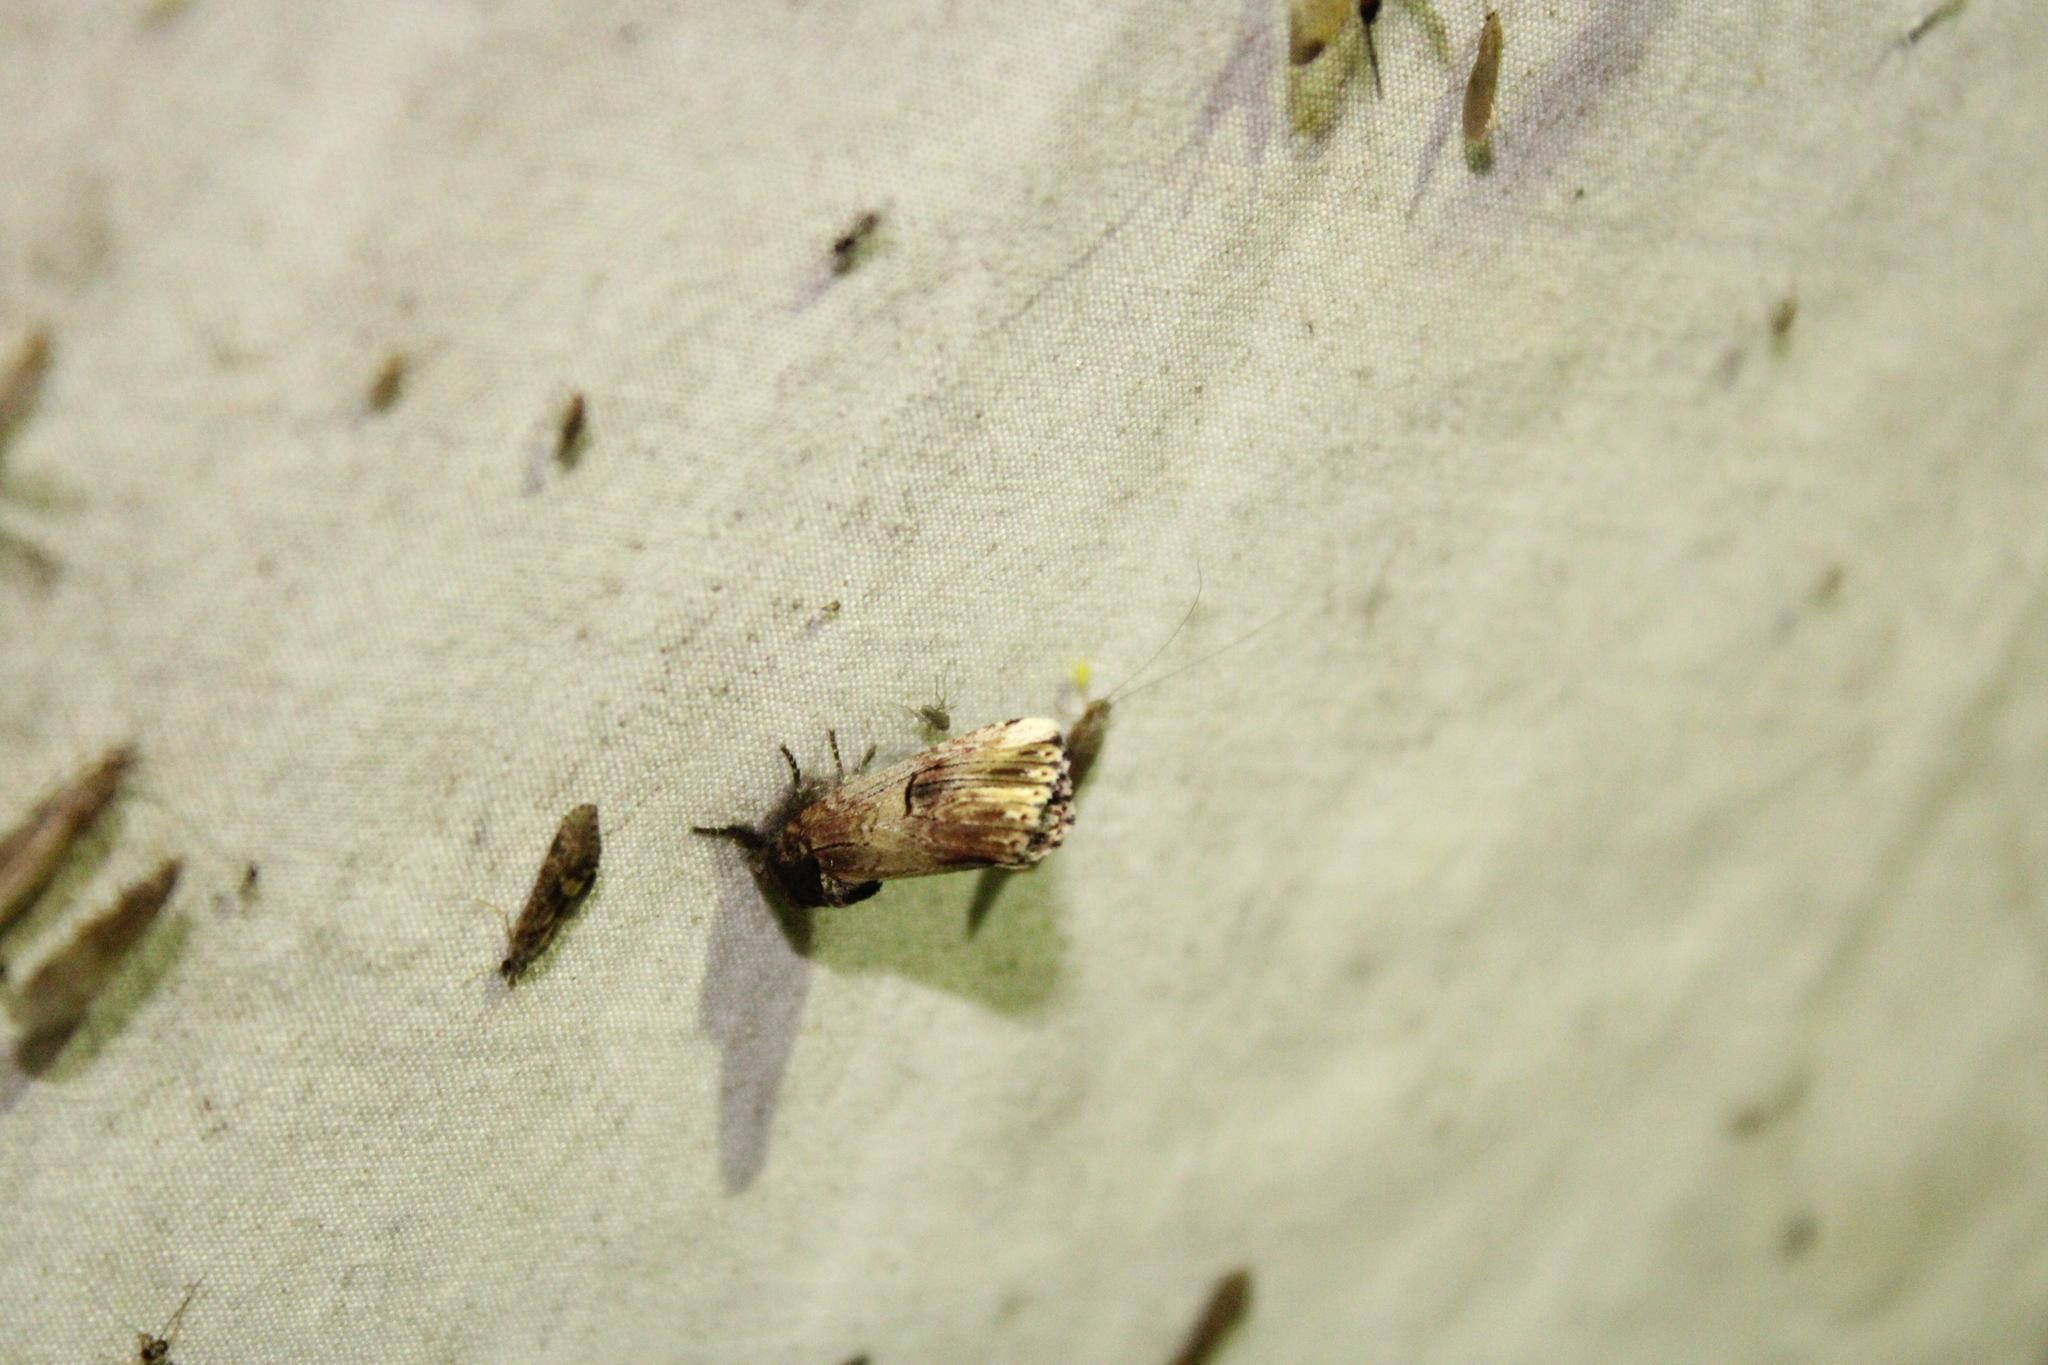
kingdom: Animalia
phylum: Arthropoda
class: Insecta
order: Lepidoptera
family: Notodontidae
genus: Schizura
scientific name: Schizura badia
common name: Chestnut schizura
